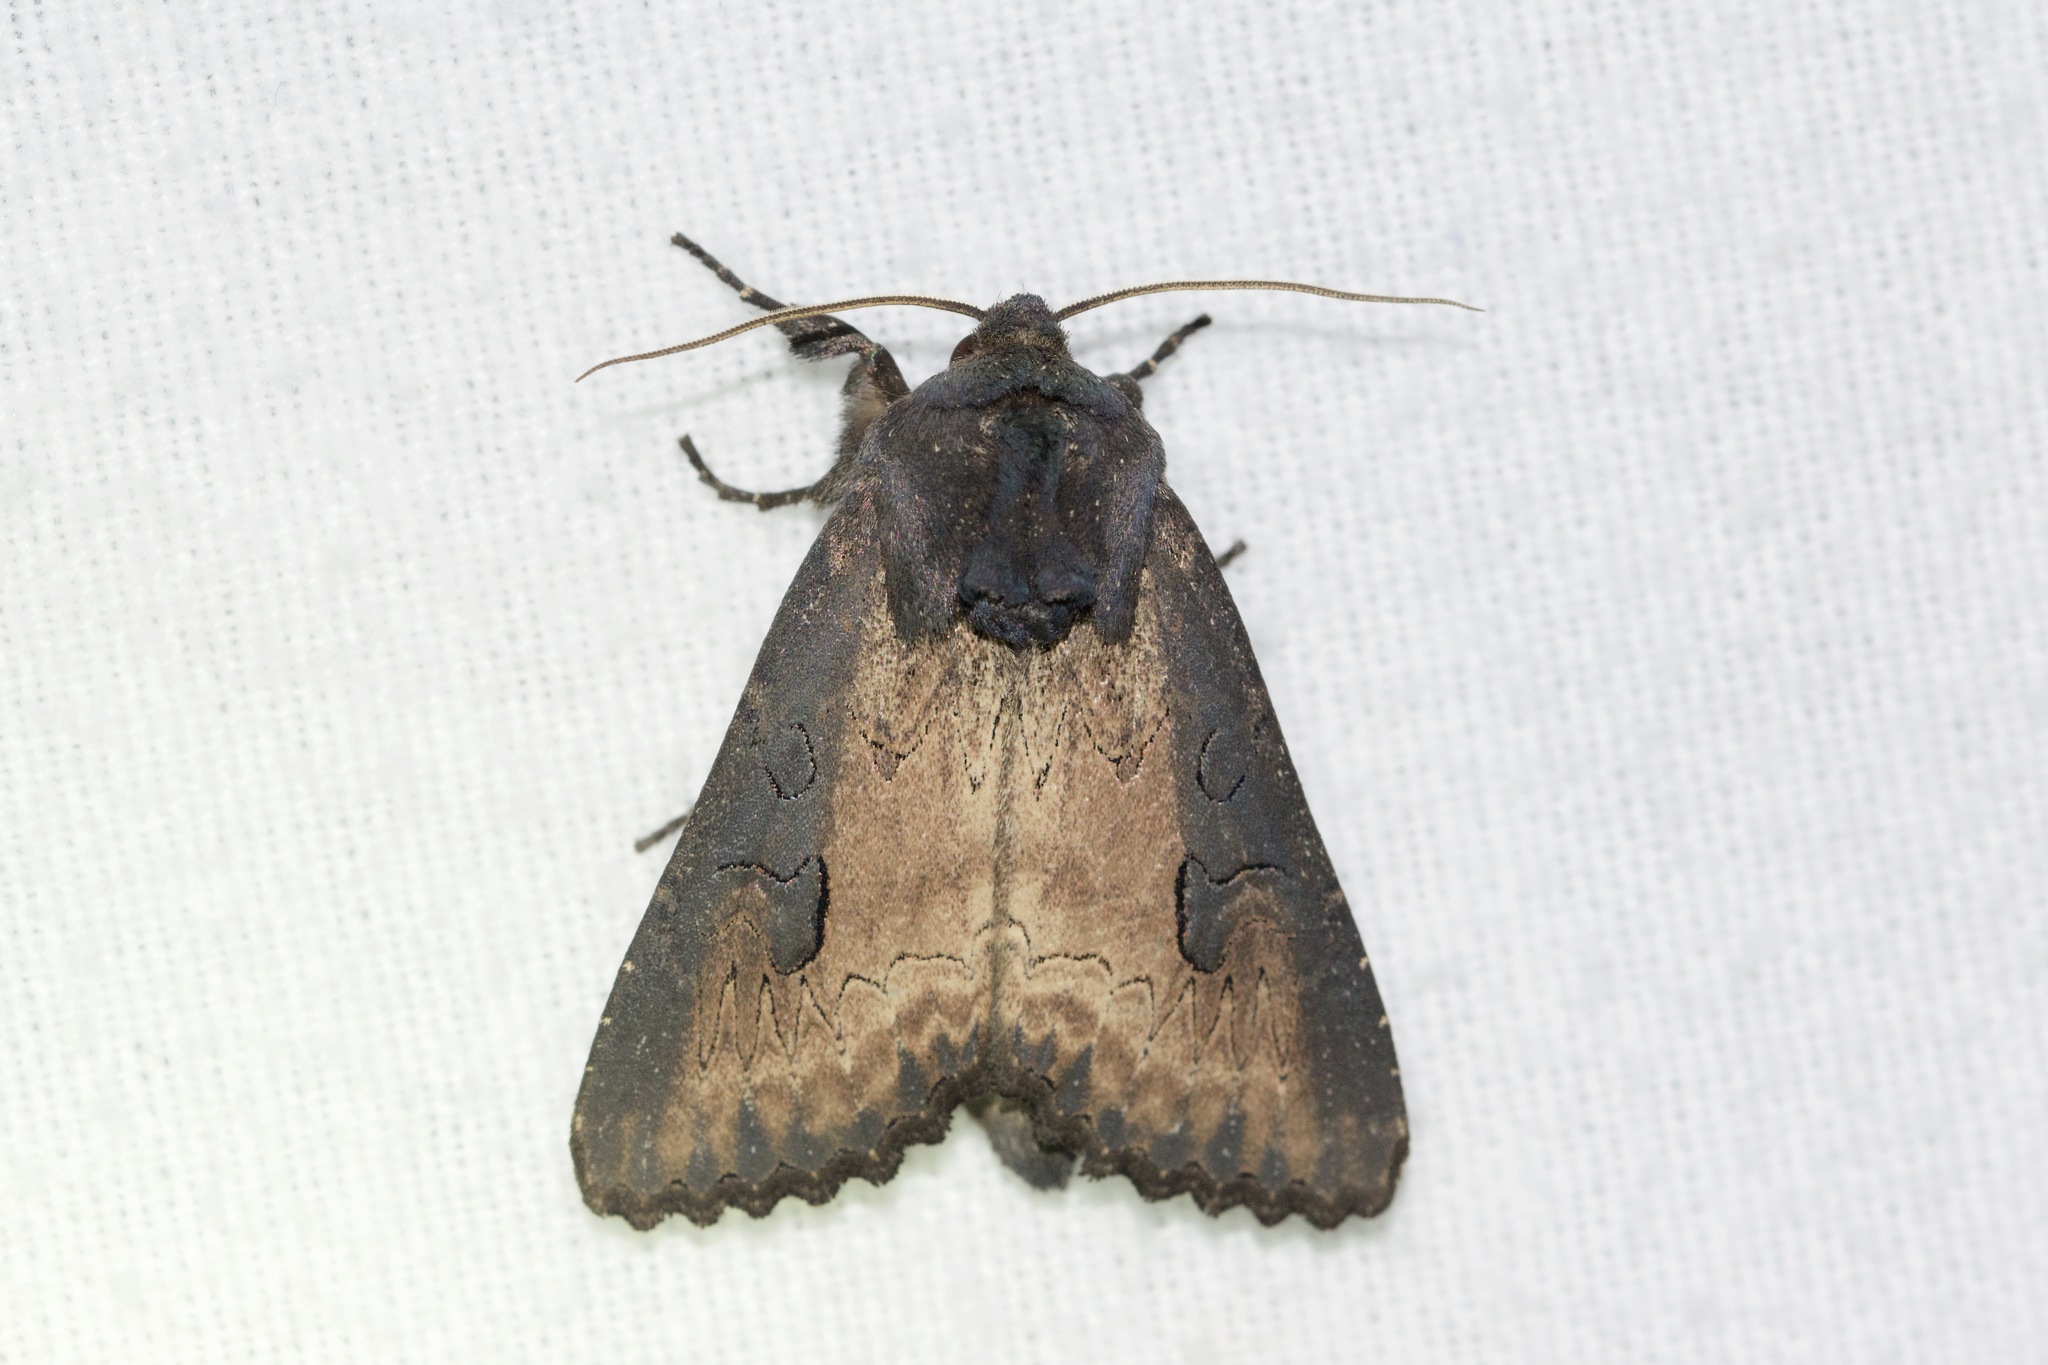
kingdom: Animalia
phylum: Arthropoda
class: Insecta
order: Lepidoptera
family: Noctuidae
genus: Macronoctua
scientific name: Macronoctua onusta
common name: Iris borer
